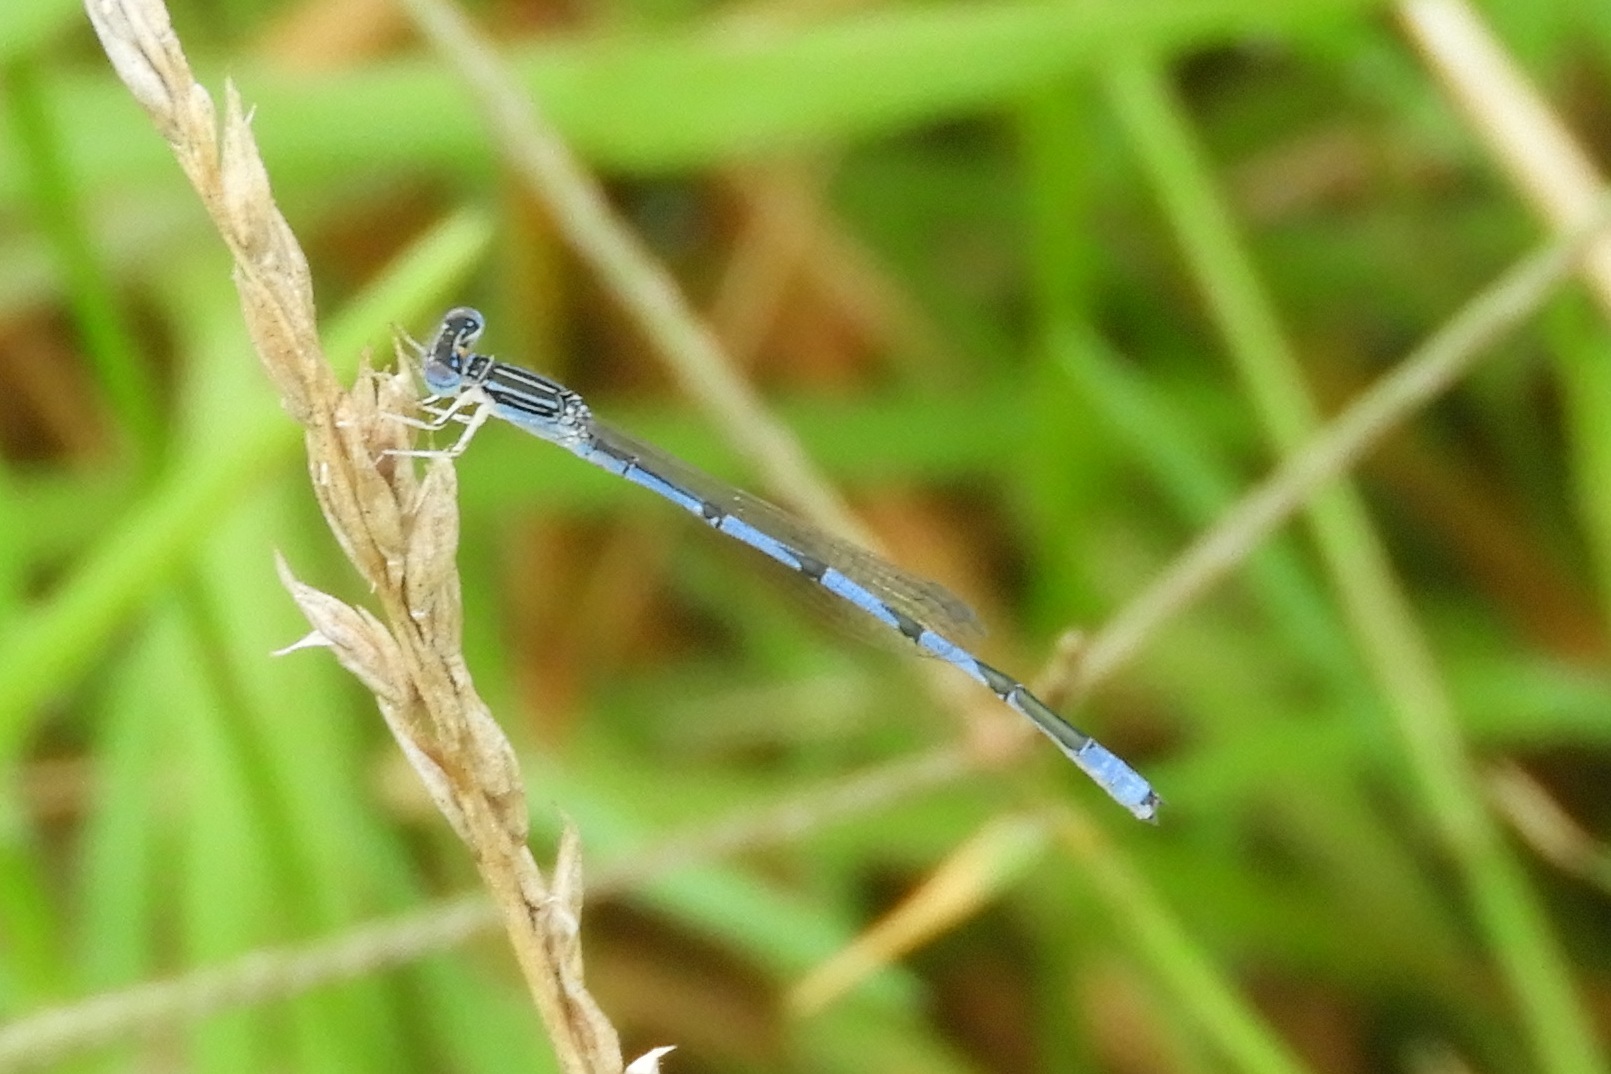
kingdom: Animalia
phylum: Arthropoda
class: Insecta
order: Odonata
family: Coenagrionidae
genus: Enallagma
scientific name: Enallagma basidens
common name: Double-striped bluet
